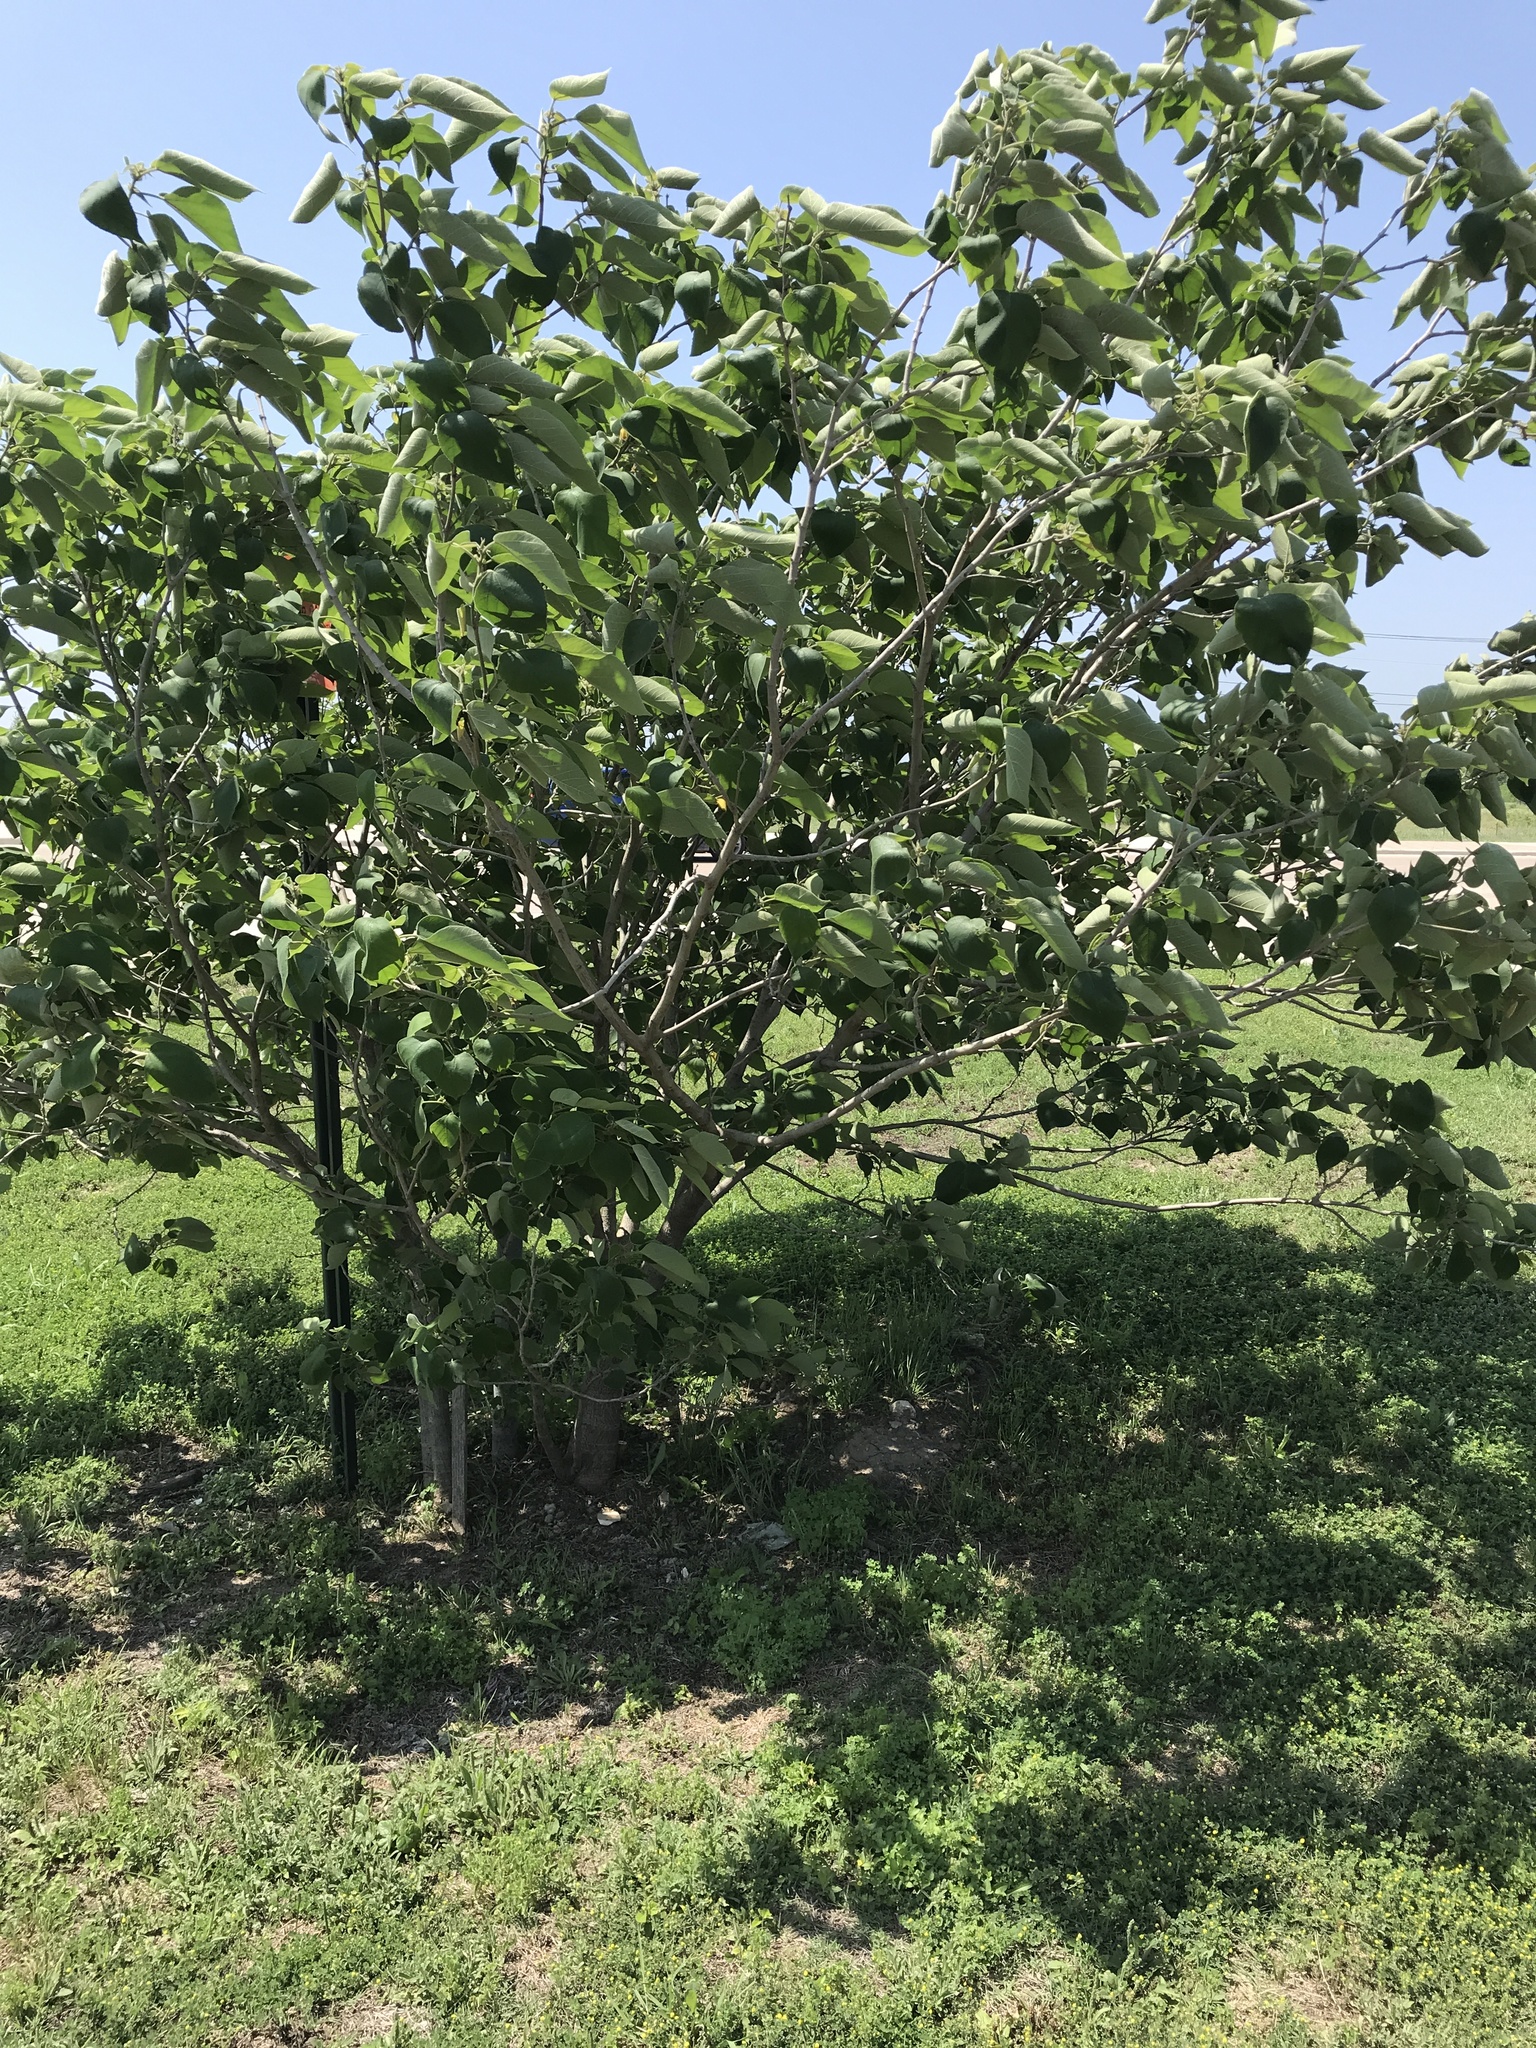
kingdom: Plantae
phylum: Tracheophyta
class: Magnoliopsida
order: Rosales
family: Moraceae
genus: Broussonetia
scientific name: Broussonetia papyrifera
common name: Paper mulberry
